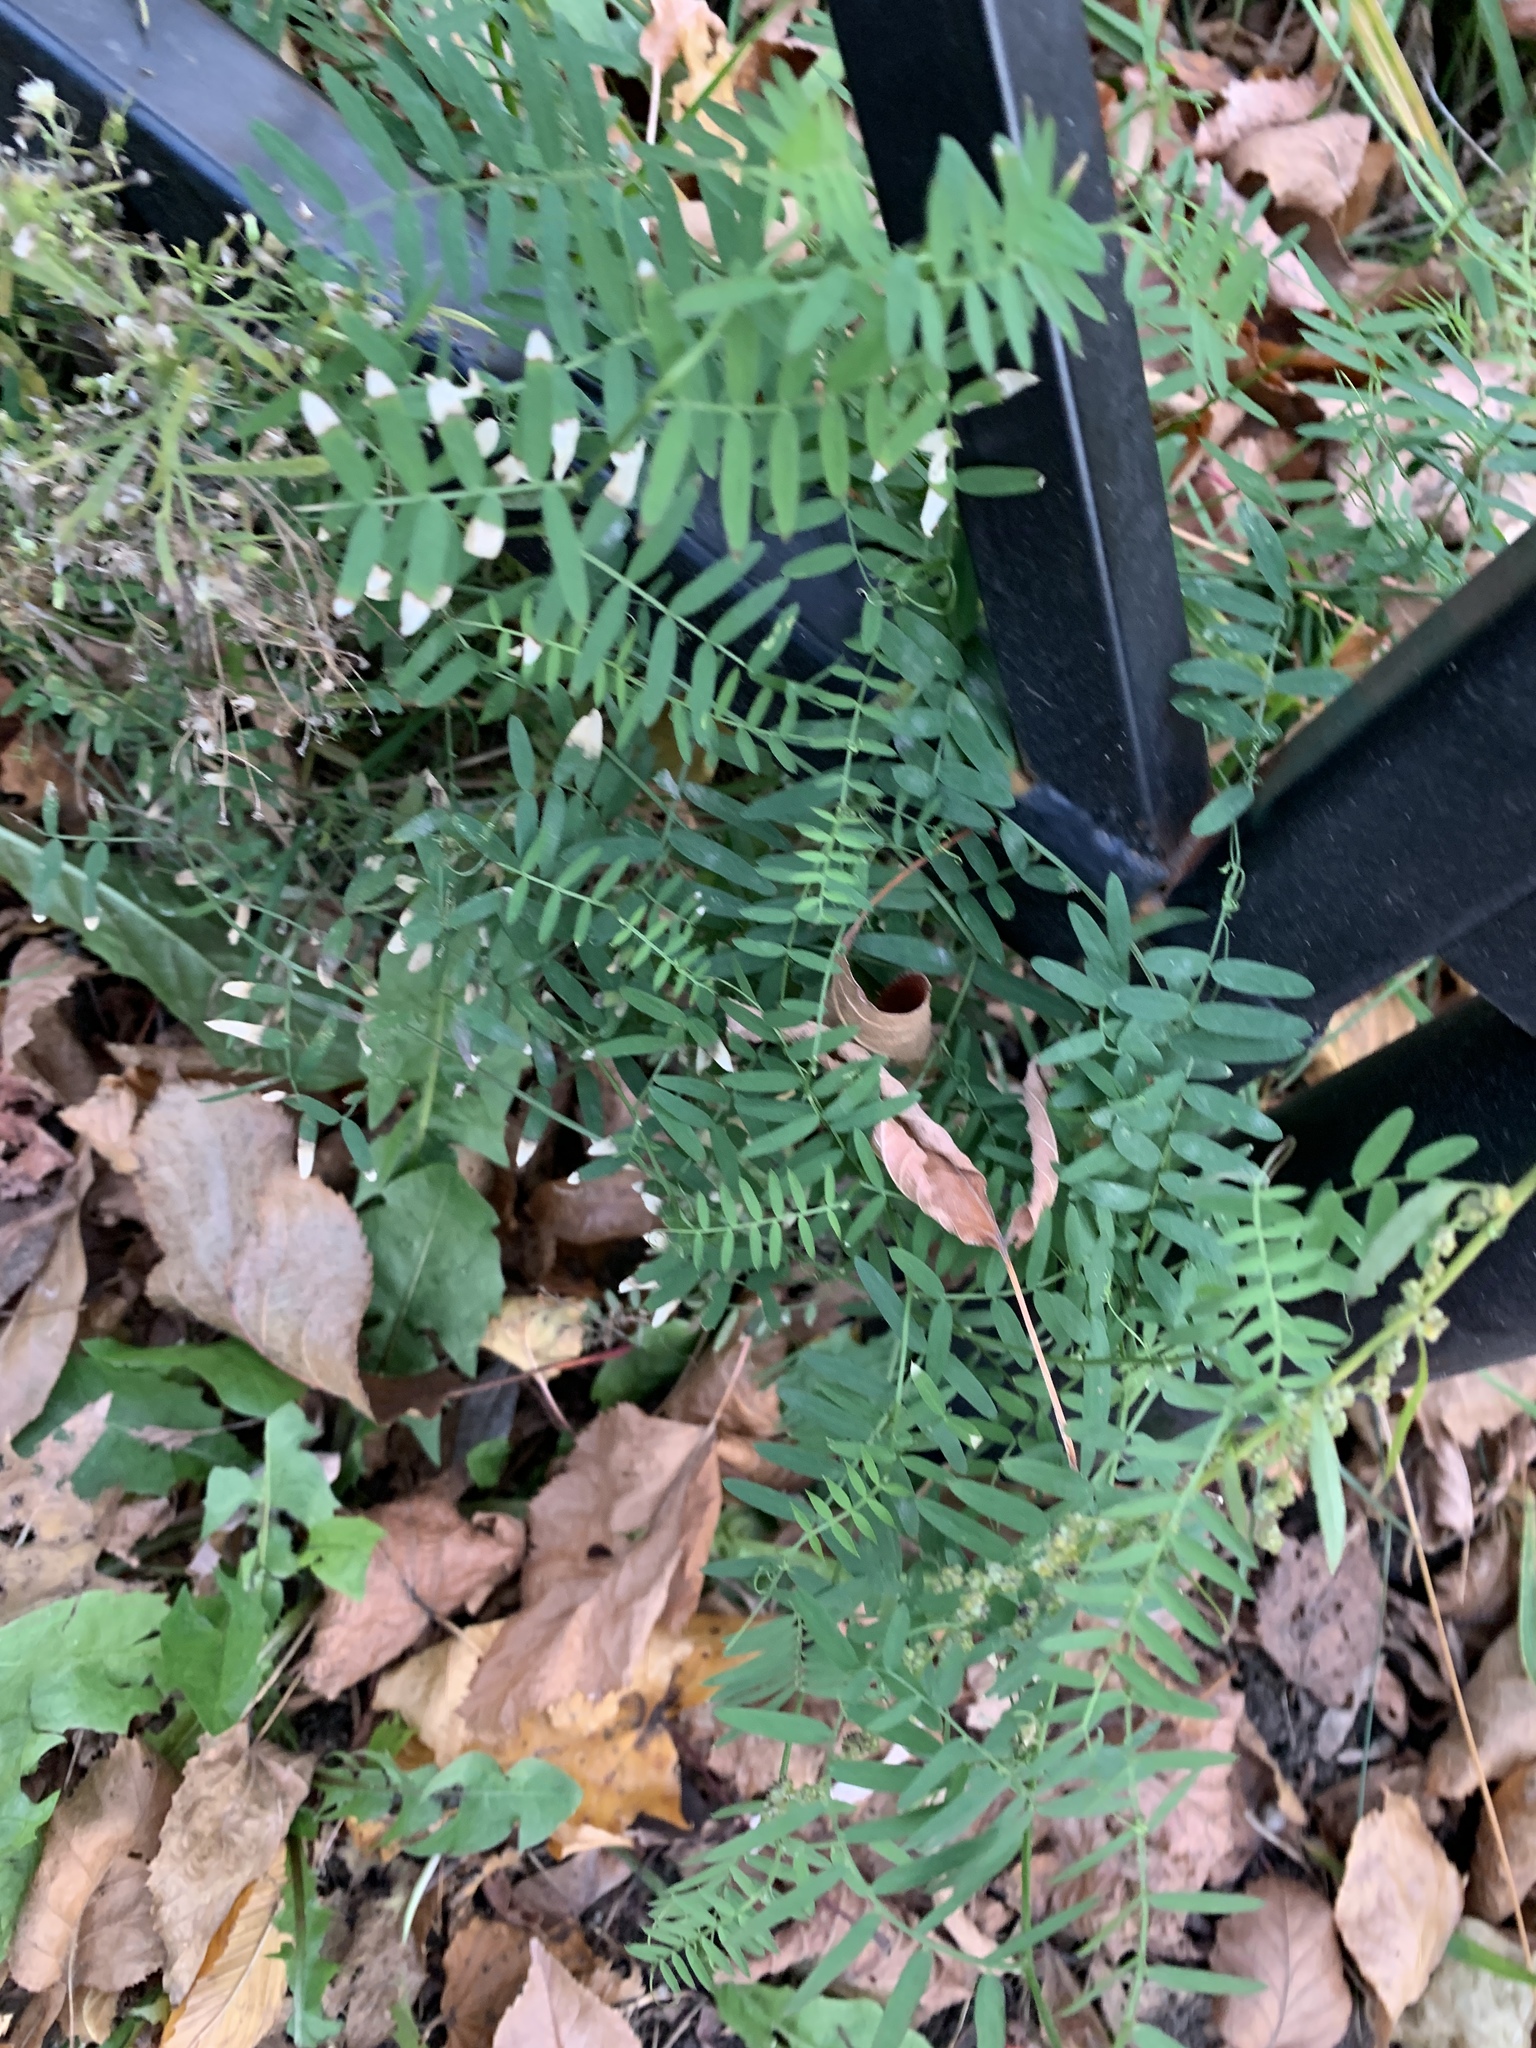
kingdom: Plantae
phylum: Tracheophyta
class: Magnoliopsida
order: Fabales
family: Fabaceae
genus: Vicia
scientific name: Vicia cracca
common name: Bird vetch
